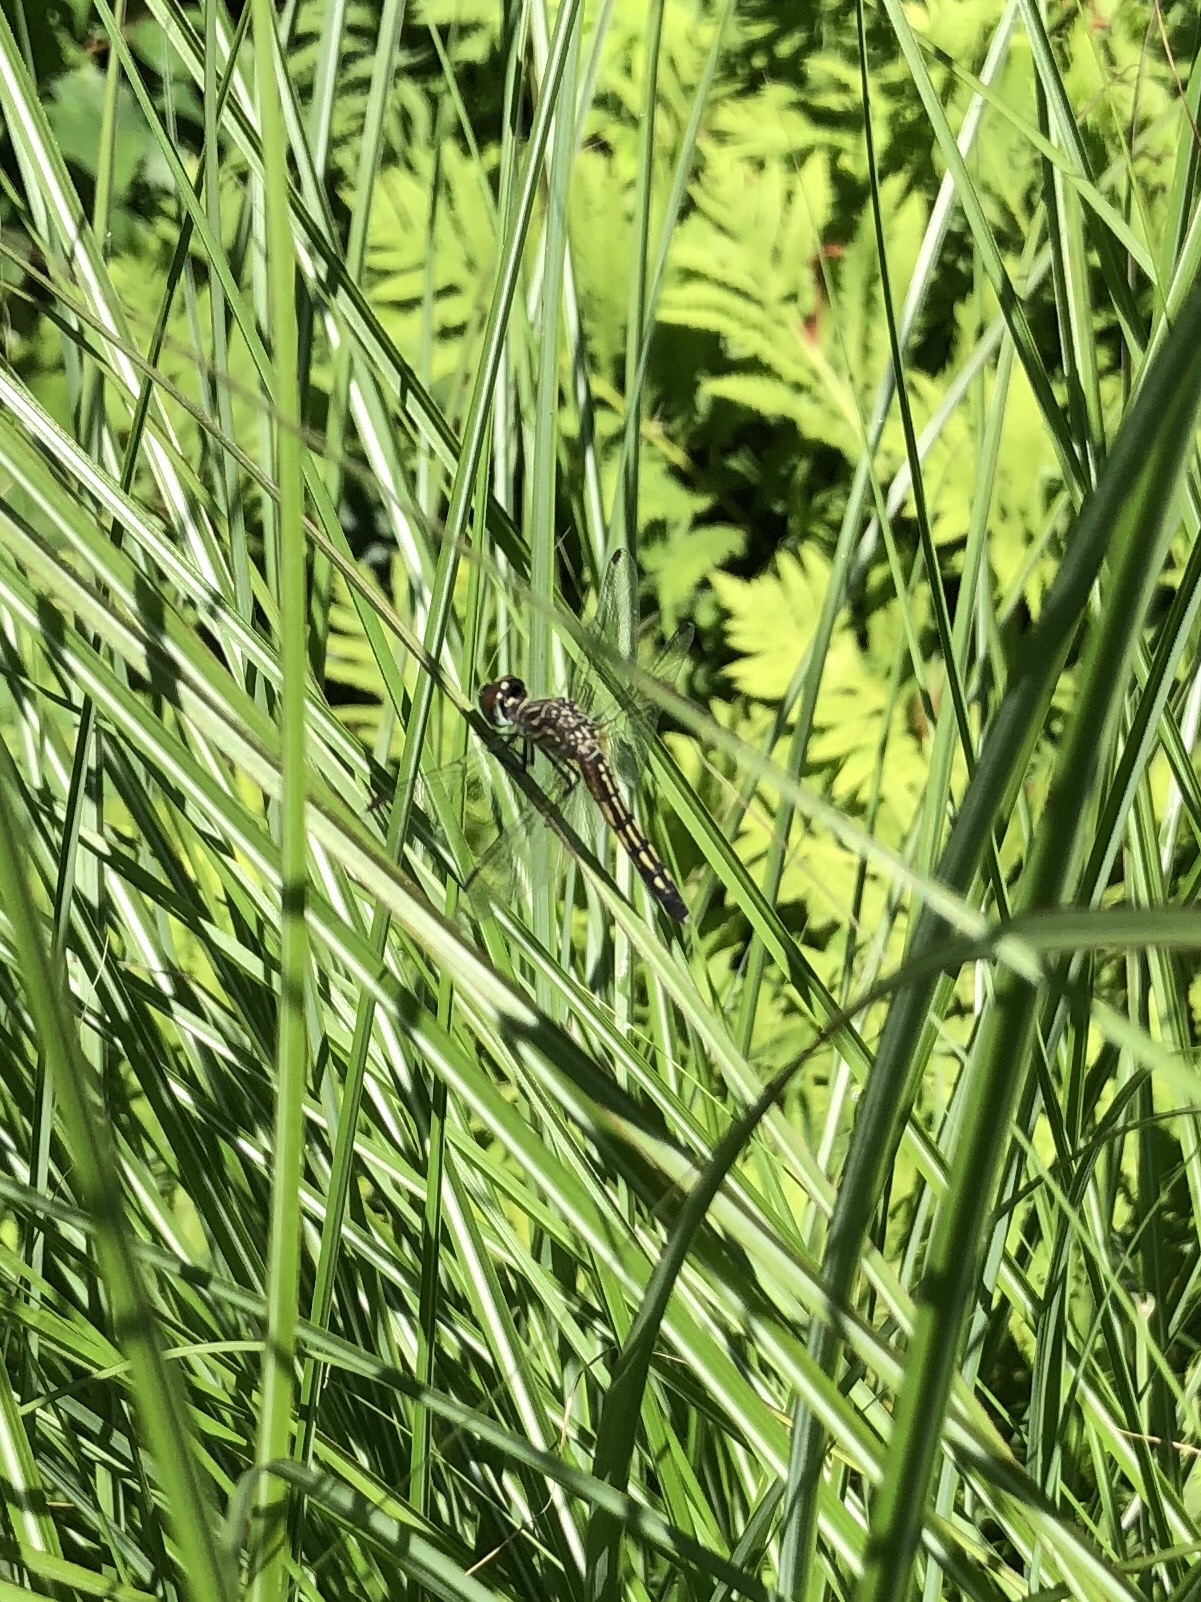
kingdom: Animalia
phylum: Arthropoda
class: Insecta
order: Odonata
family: Libellulidae
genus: Pachydiplax
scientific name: Pachydiplax longipennis
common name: Blue dasher
